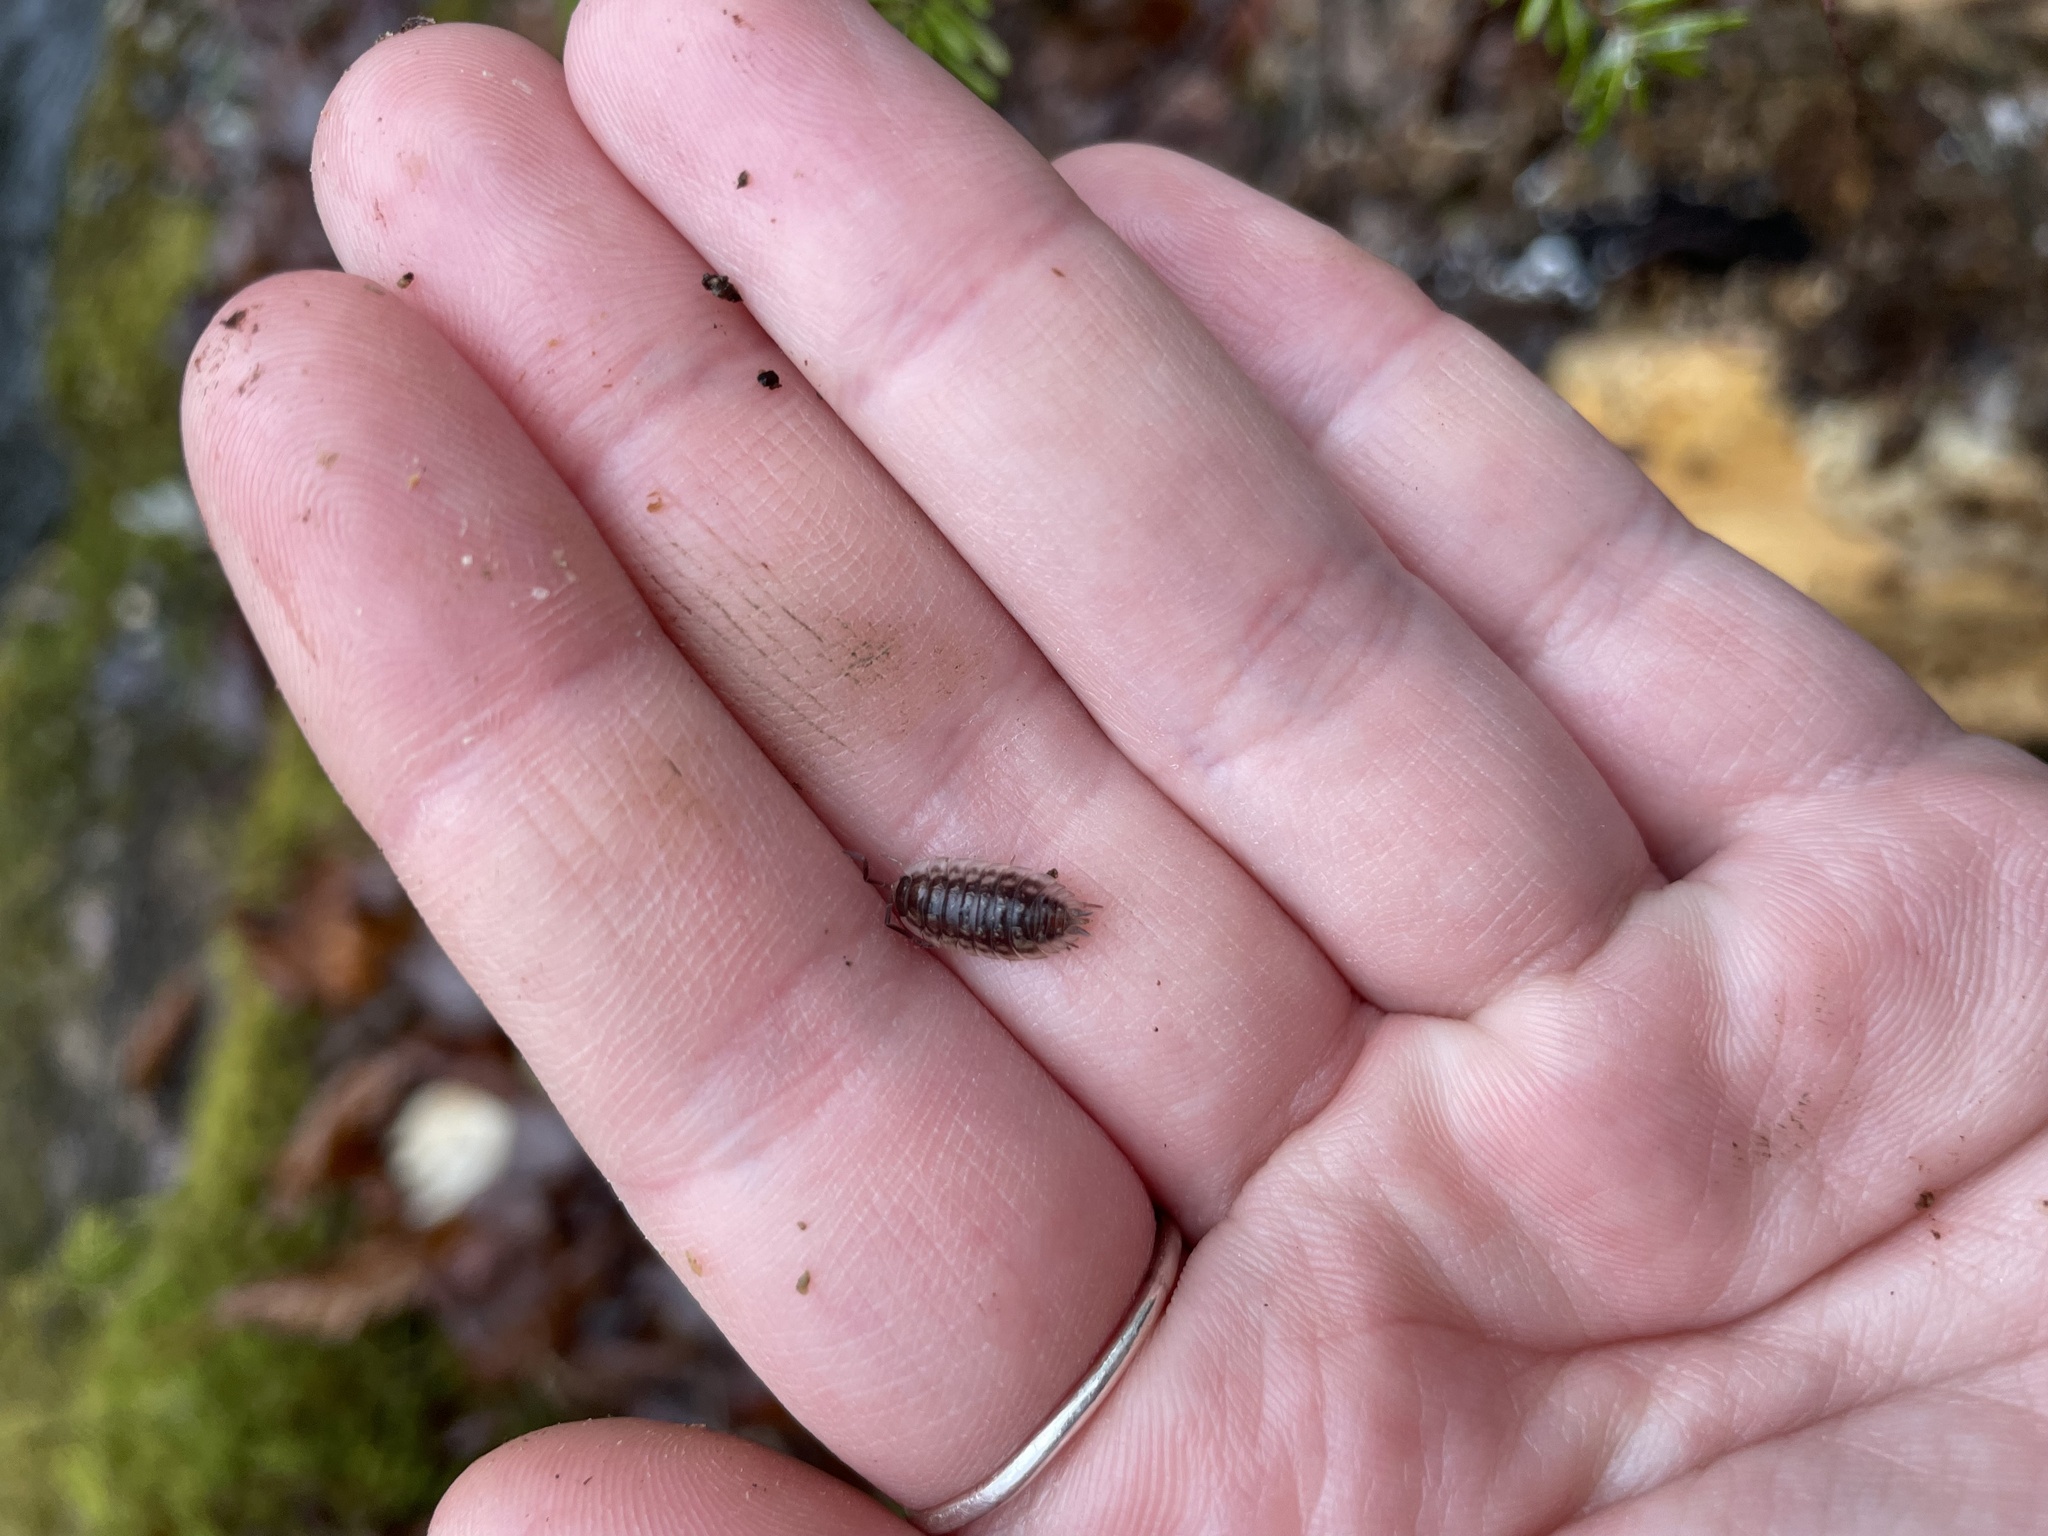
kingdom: Animalia
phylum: Arthropoda
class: Malacostraca
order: Isopoda
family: Oniscidae
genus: Oniscus
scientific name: Oniscus asellus
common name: Common shiny woodlouse
